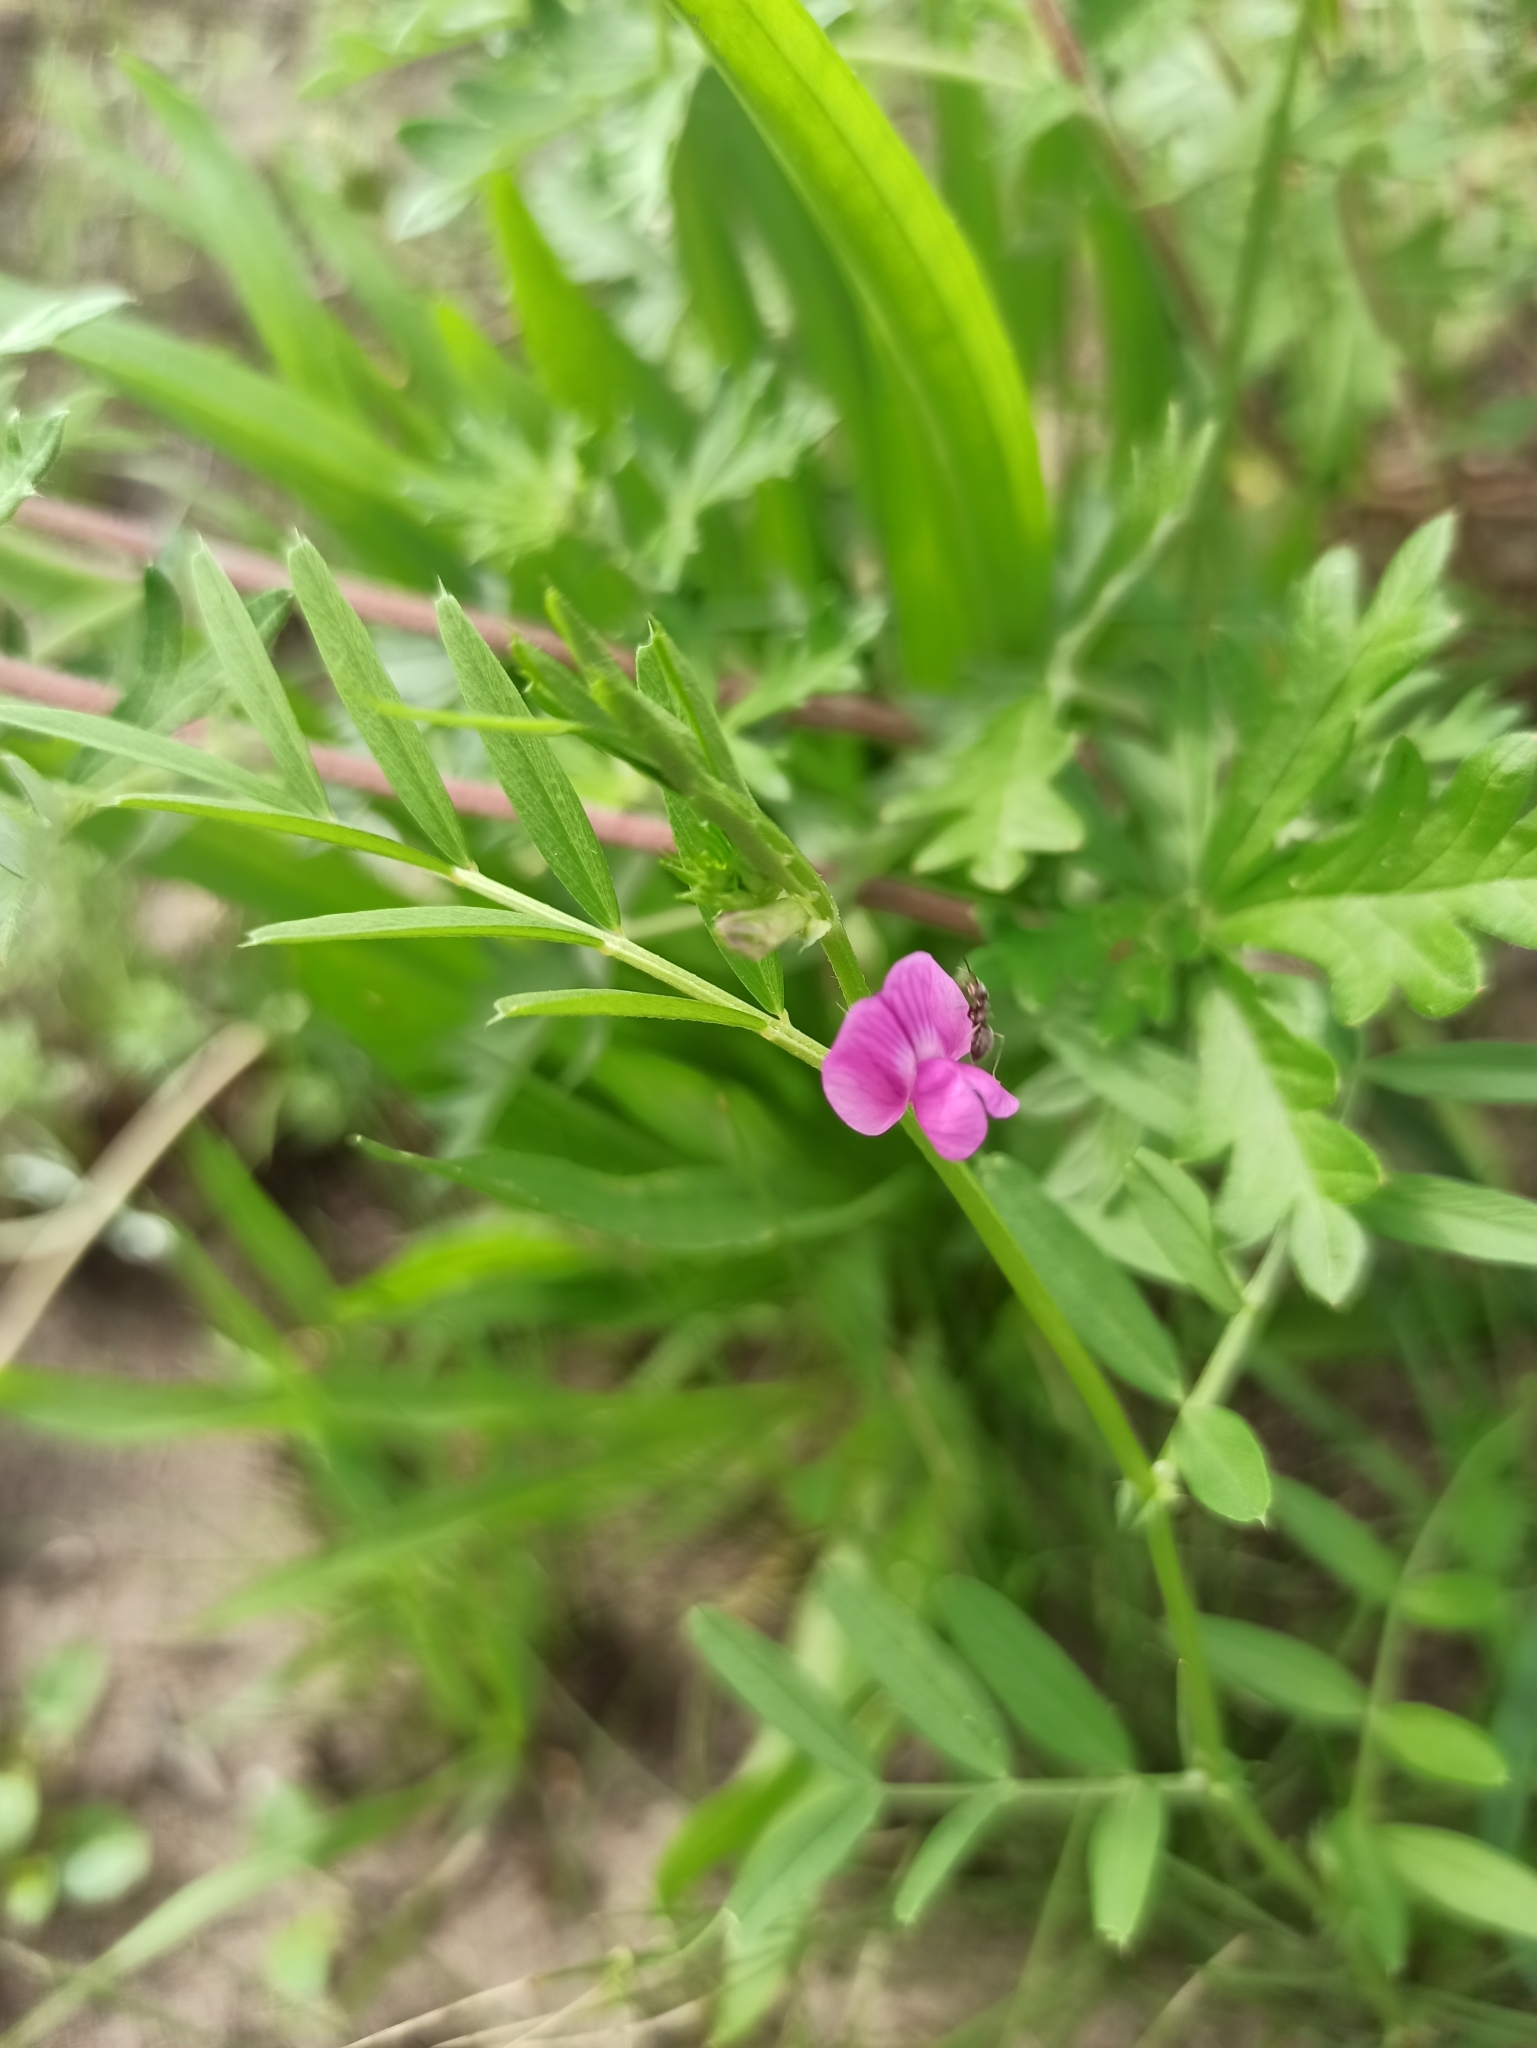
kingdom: Plantae
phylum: Tracheophyta
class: Magnoliopsida
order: Fabales
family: Fabaceae
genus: Vicia
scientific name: Vicia sativa
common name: Garden vetch
